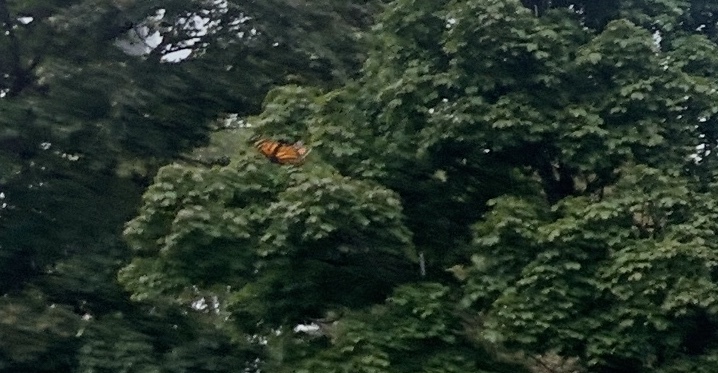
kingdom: Animalia
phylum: Arthropoda
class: Insecta
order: Lepidoptera
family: Nymphalidae
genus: Danaus
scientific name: Danaus plexippus
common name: Monarch
